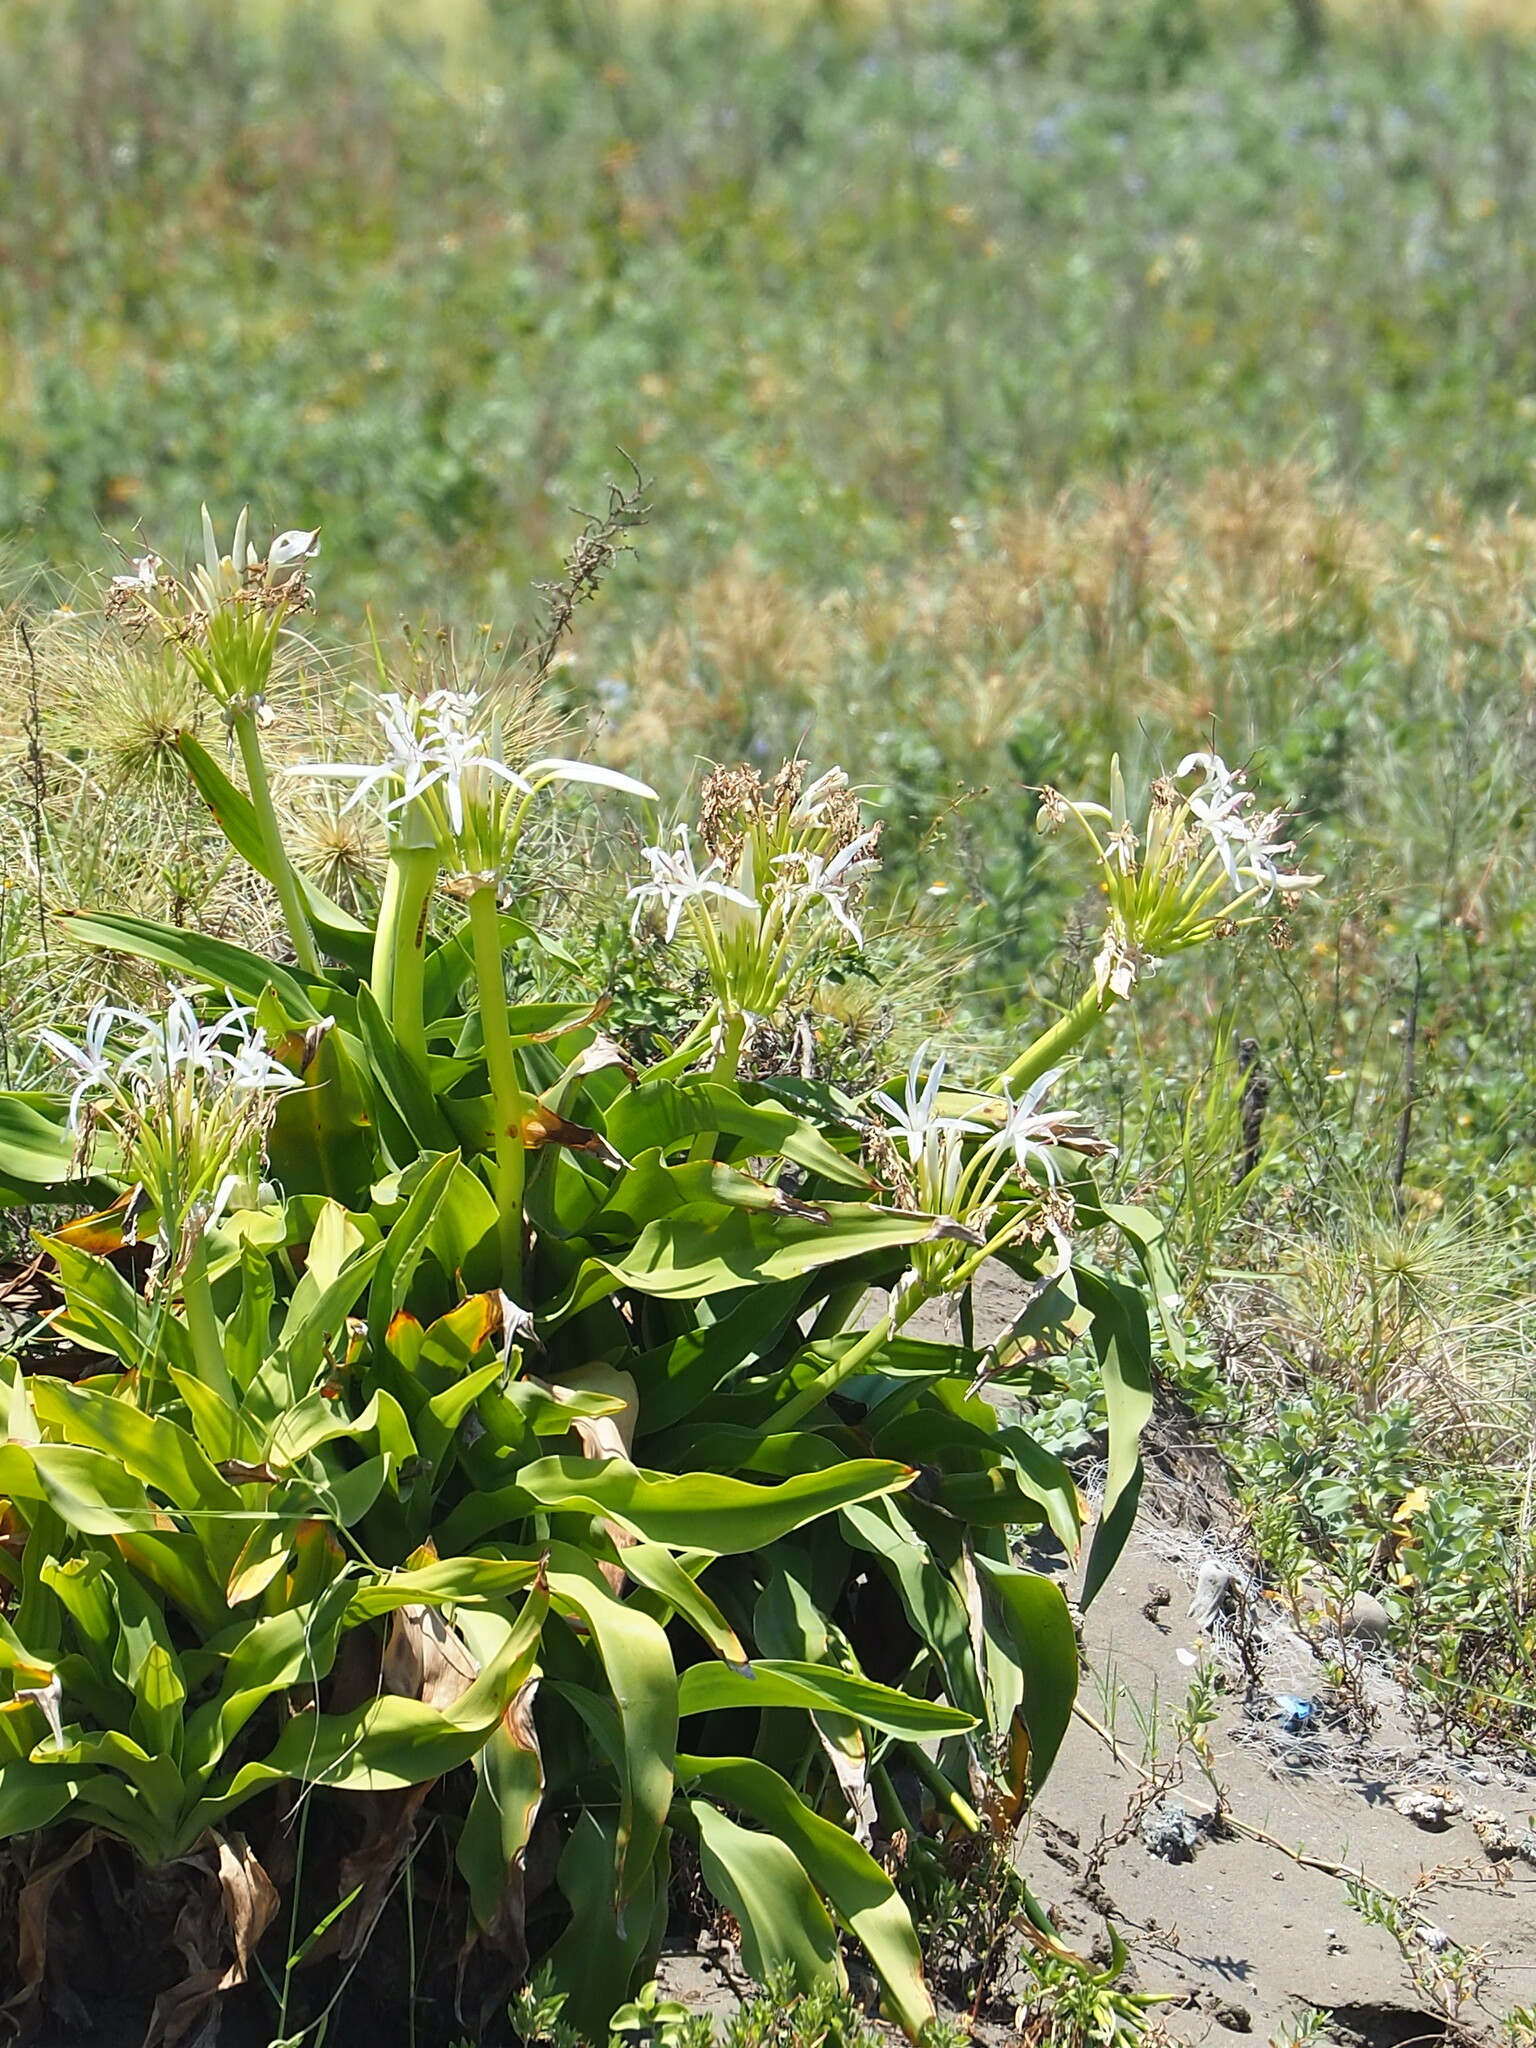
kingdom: Plantae
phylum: Tracheophyta
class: Liliopsida
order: Asparagales
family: Amaryllidaceae
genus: Crinum
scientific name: Crinum asiaticum
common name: Poisonbulb
